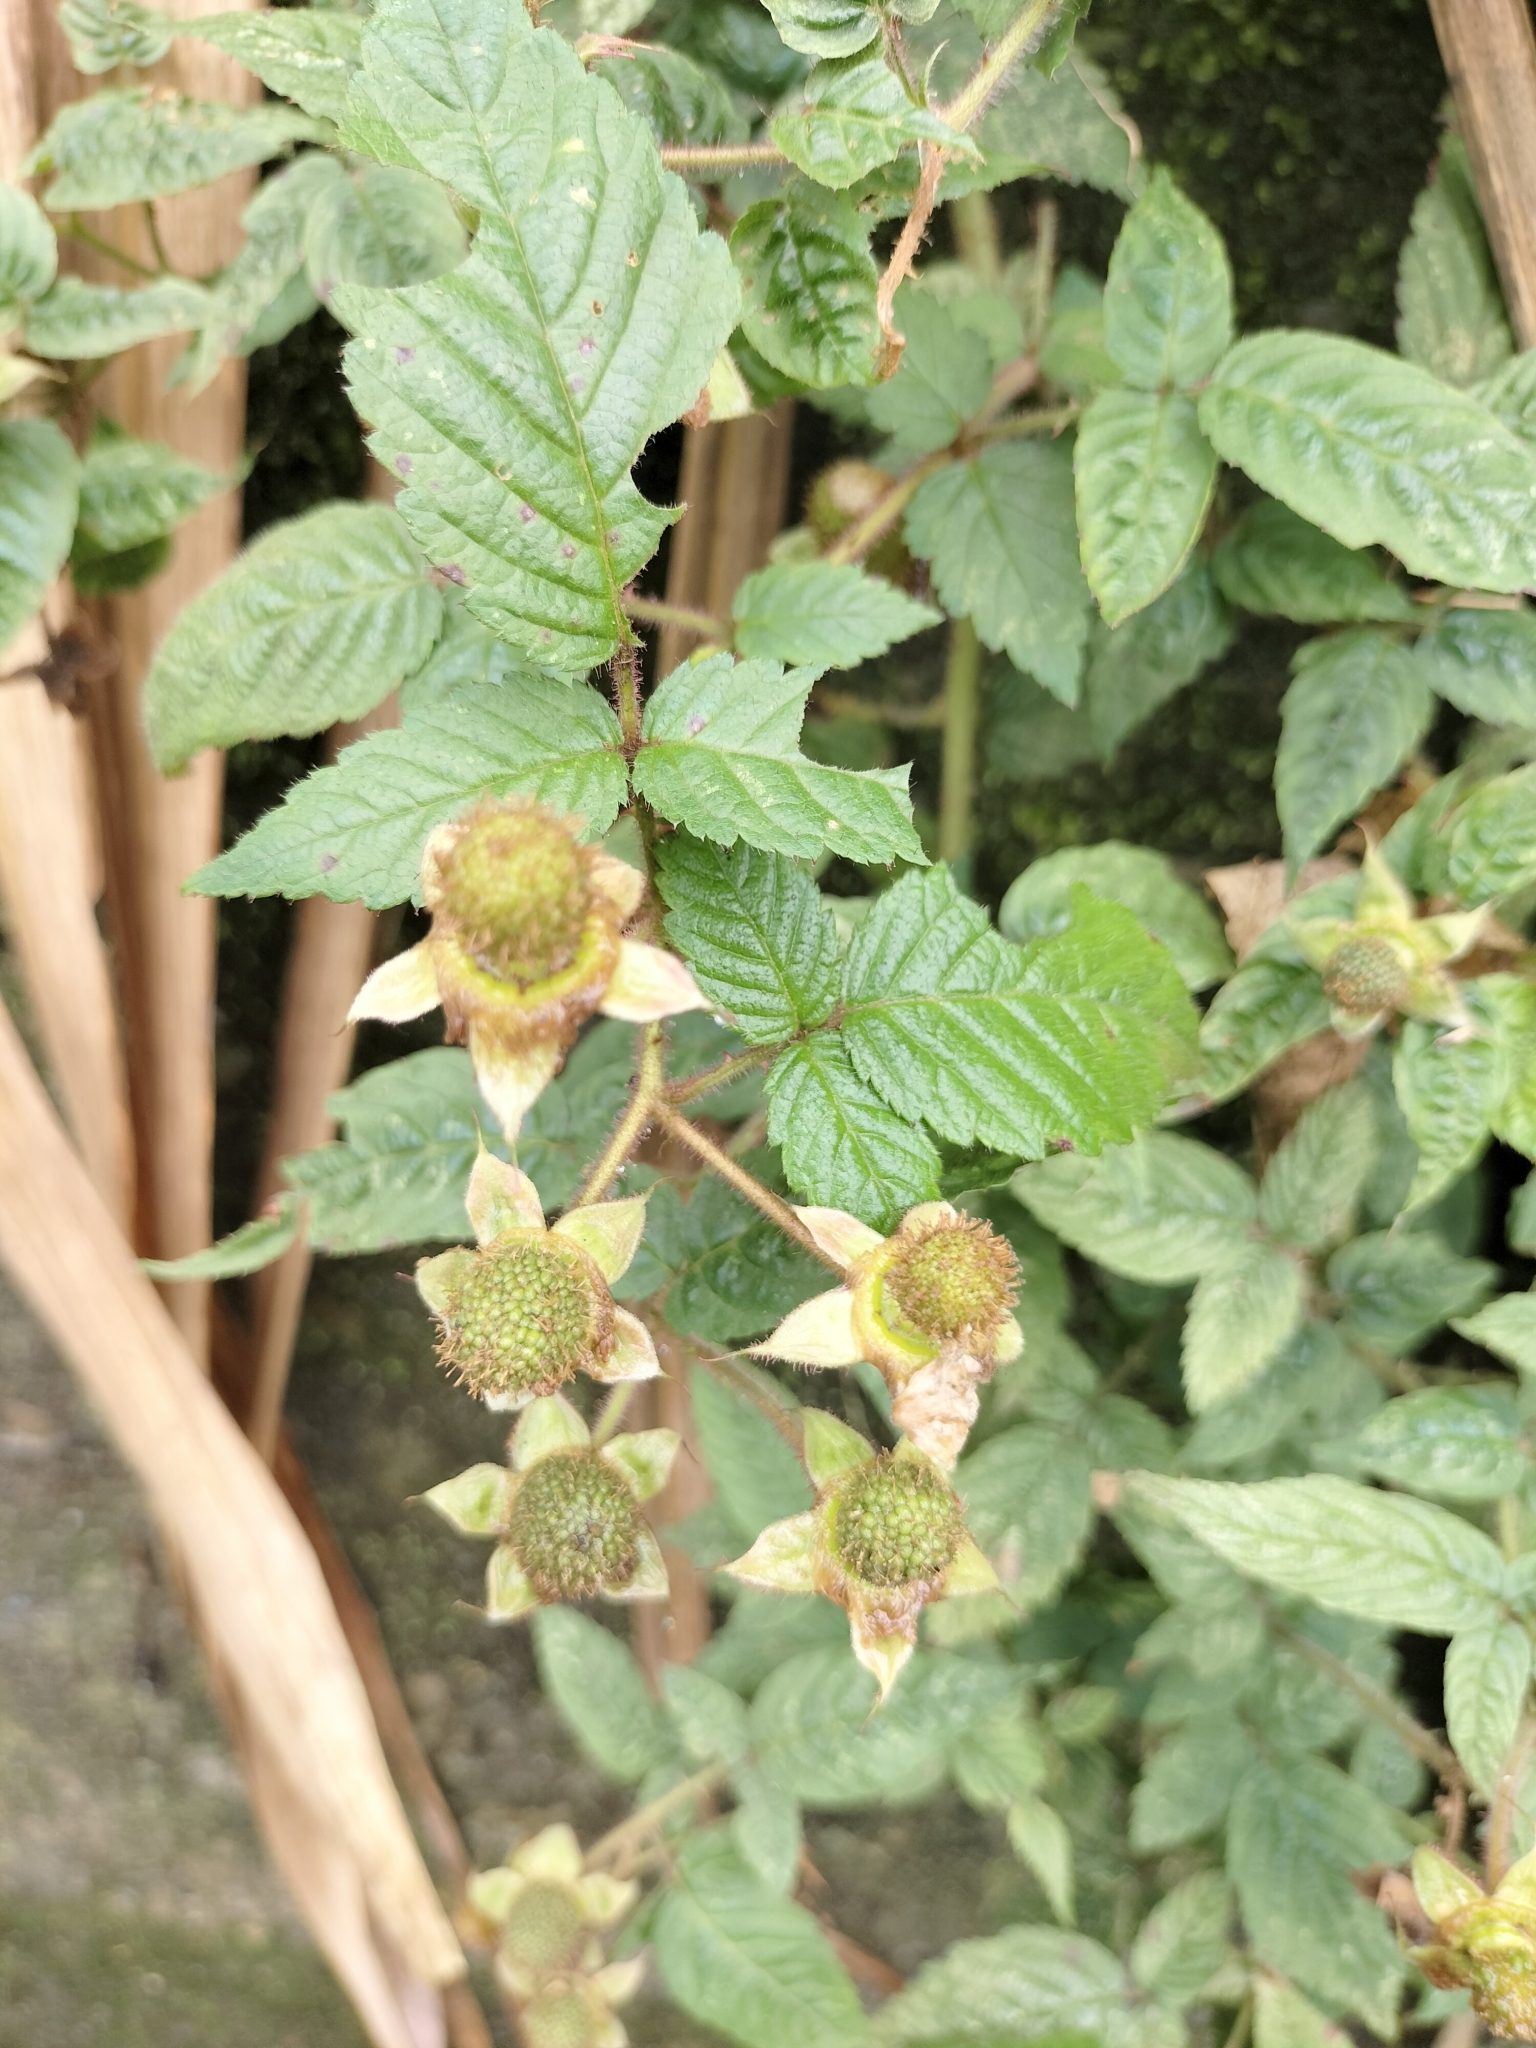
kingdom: Plantae
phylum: Tracheophyta
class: Magnoliopsida
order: Rosales
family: Rosaceae
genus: Rubus
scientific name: Rubus croceacanthus
